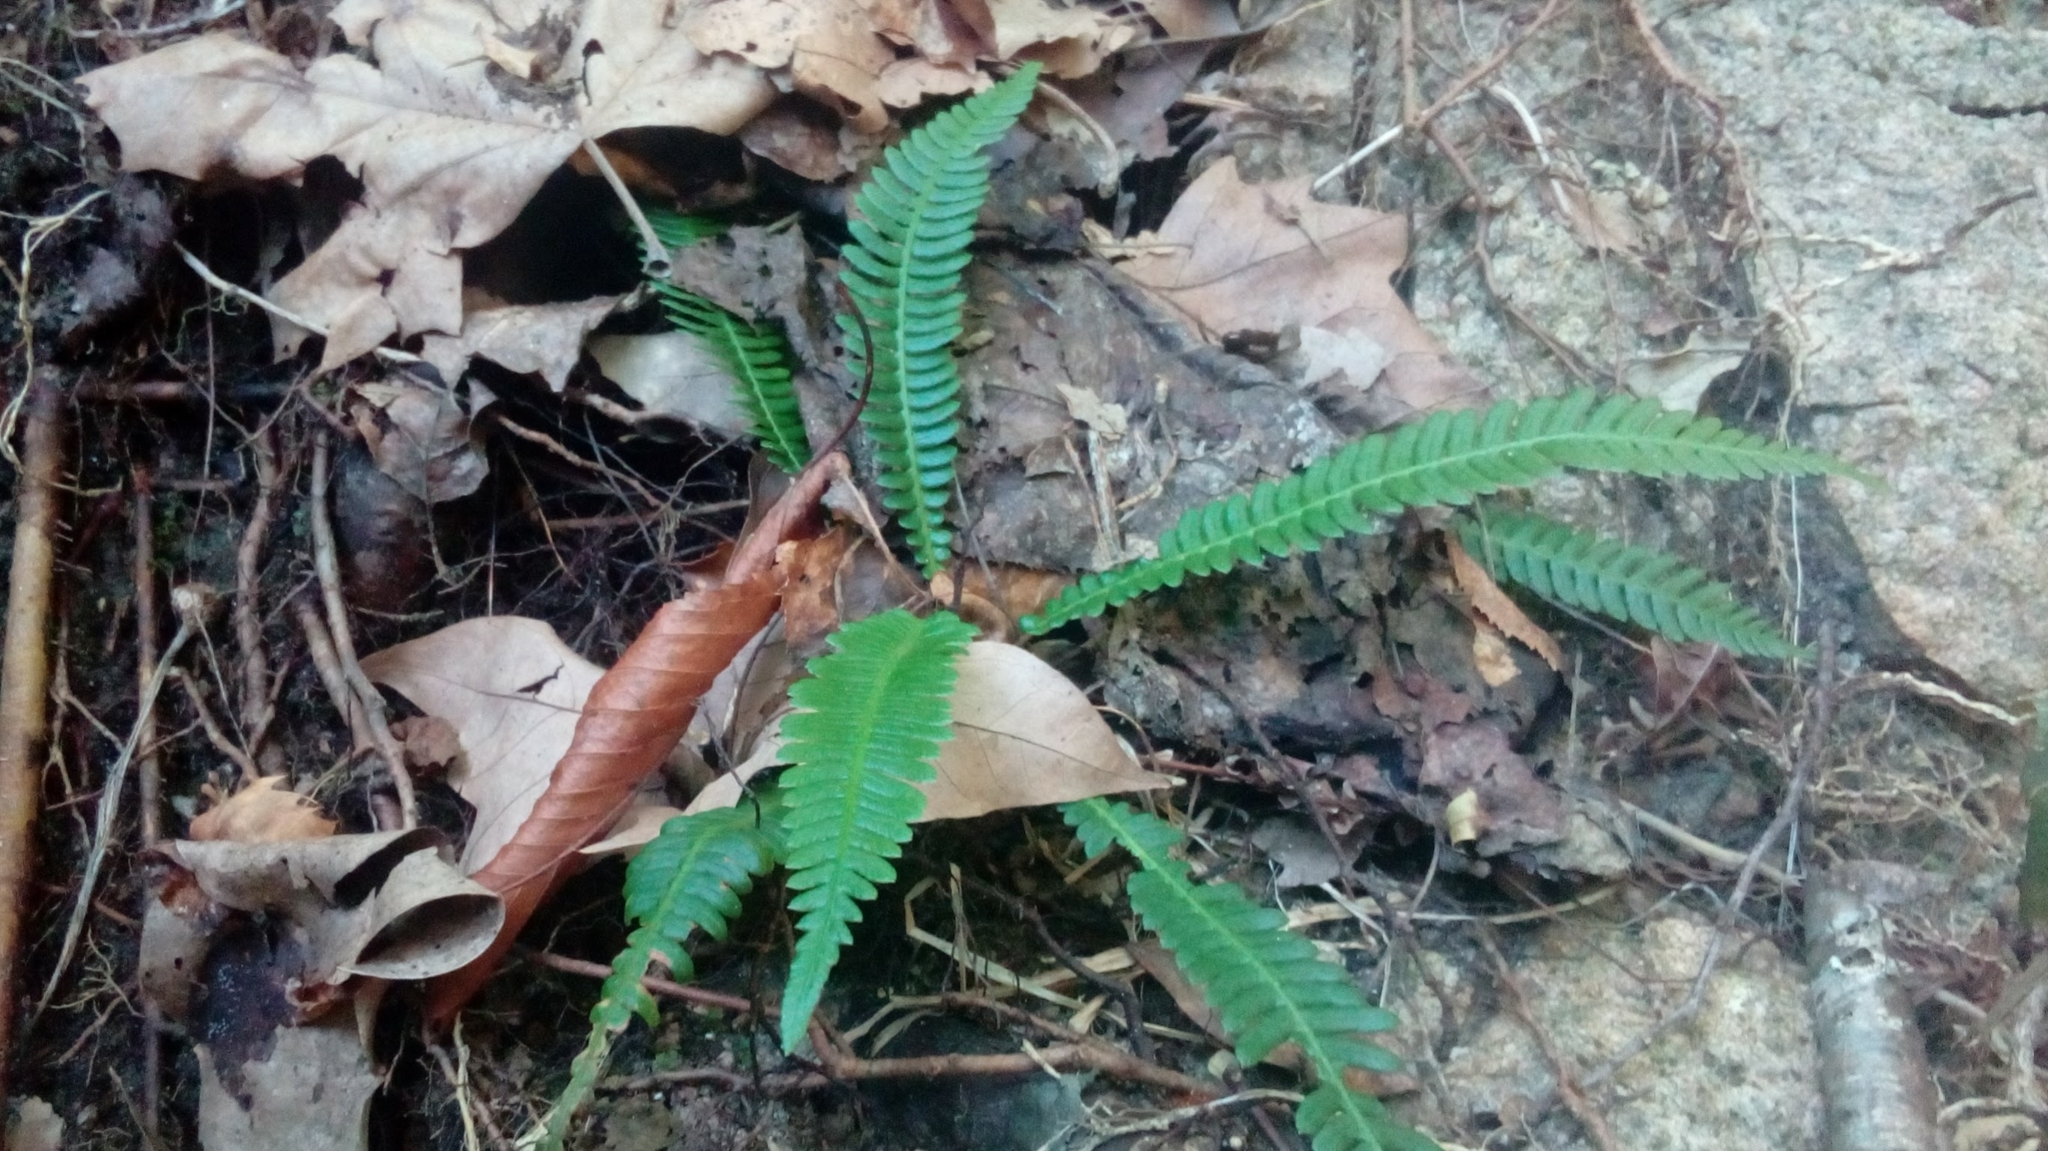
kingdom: Plantae
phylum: Tracheophyta
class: Polypodiopsida
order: Polypodiales
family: Blechnaceae
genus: Struthiopteris
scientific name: Struthiopteris spicant
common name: Deer fern
